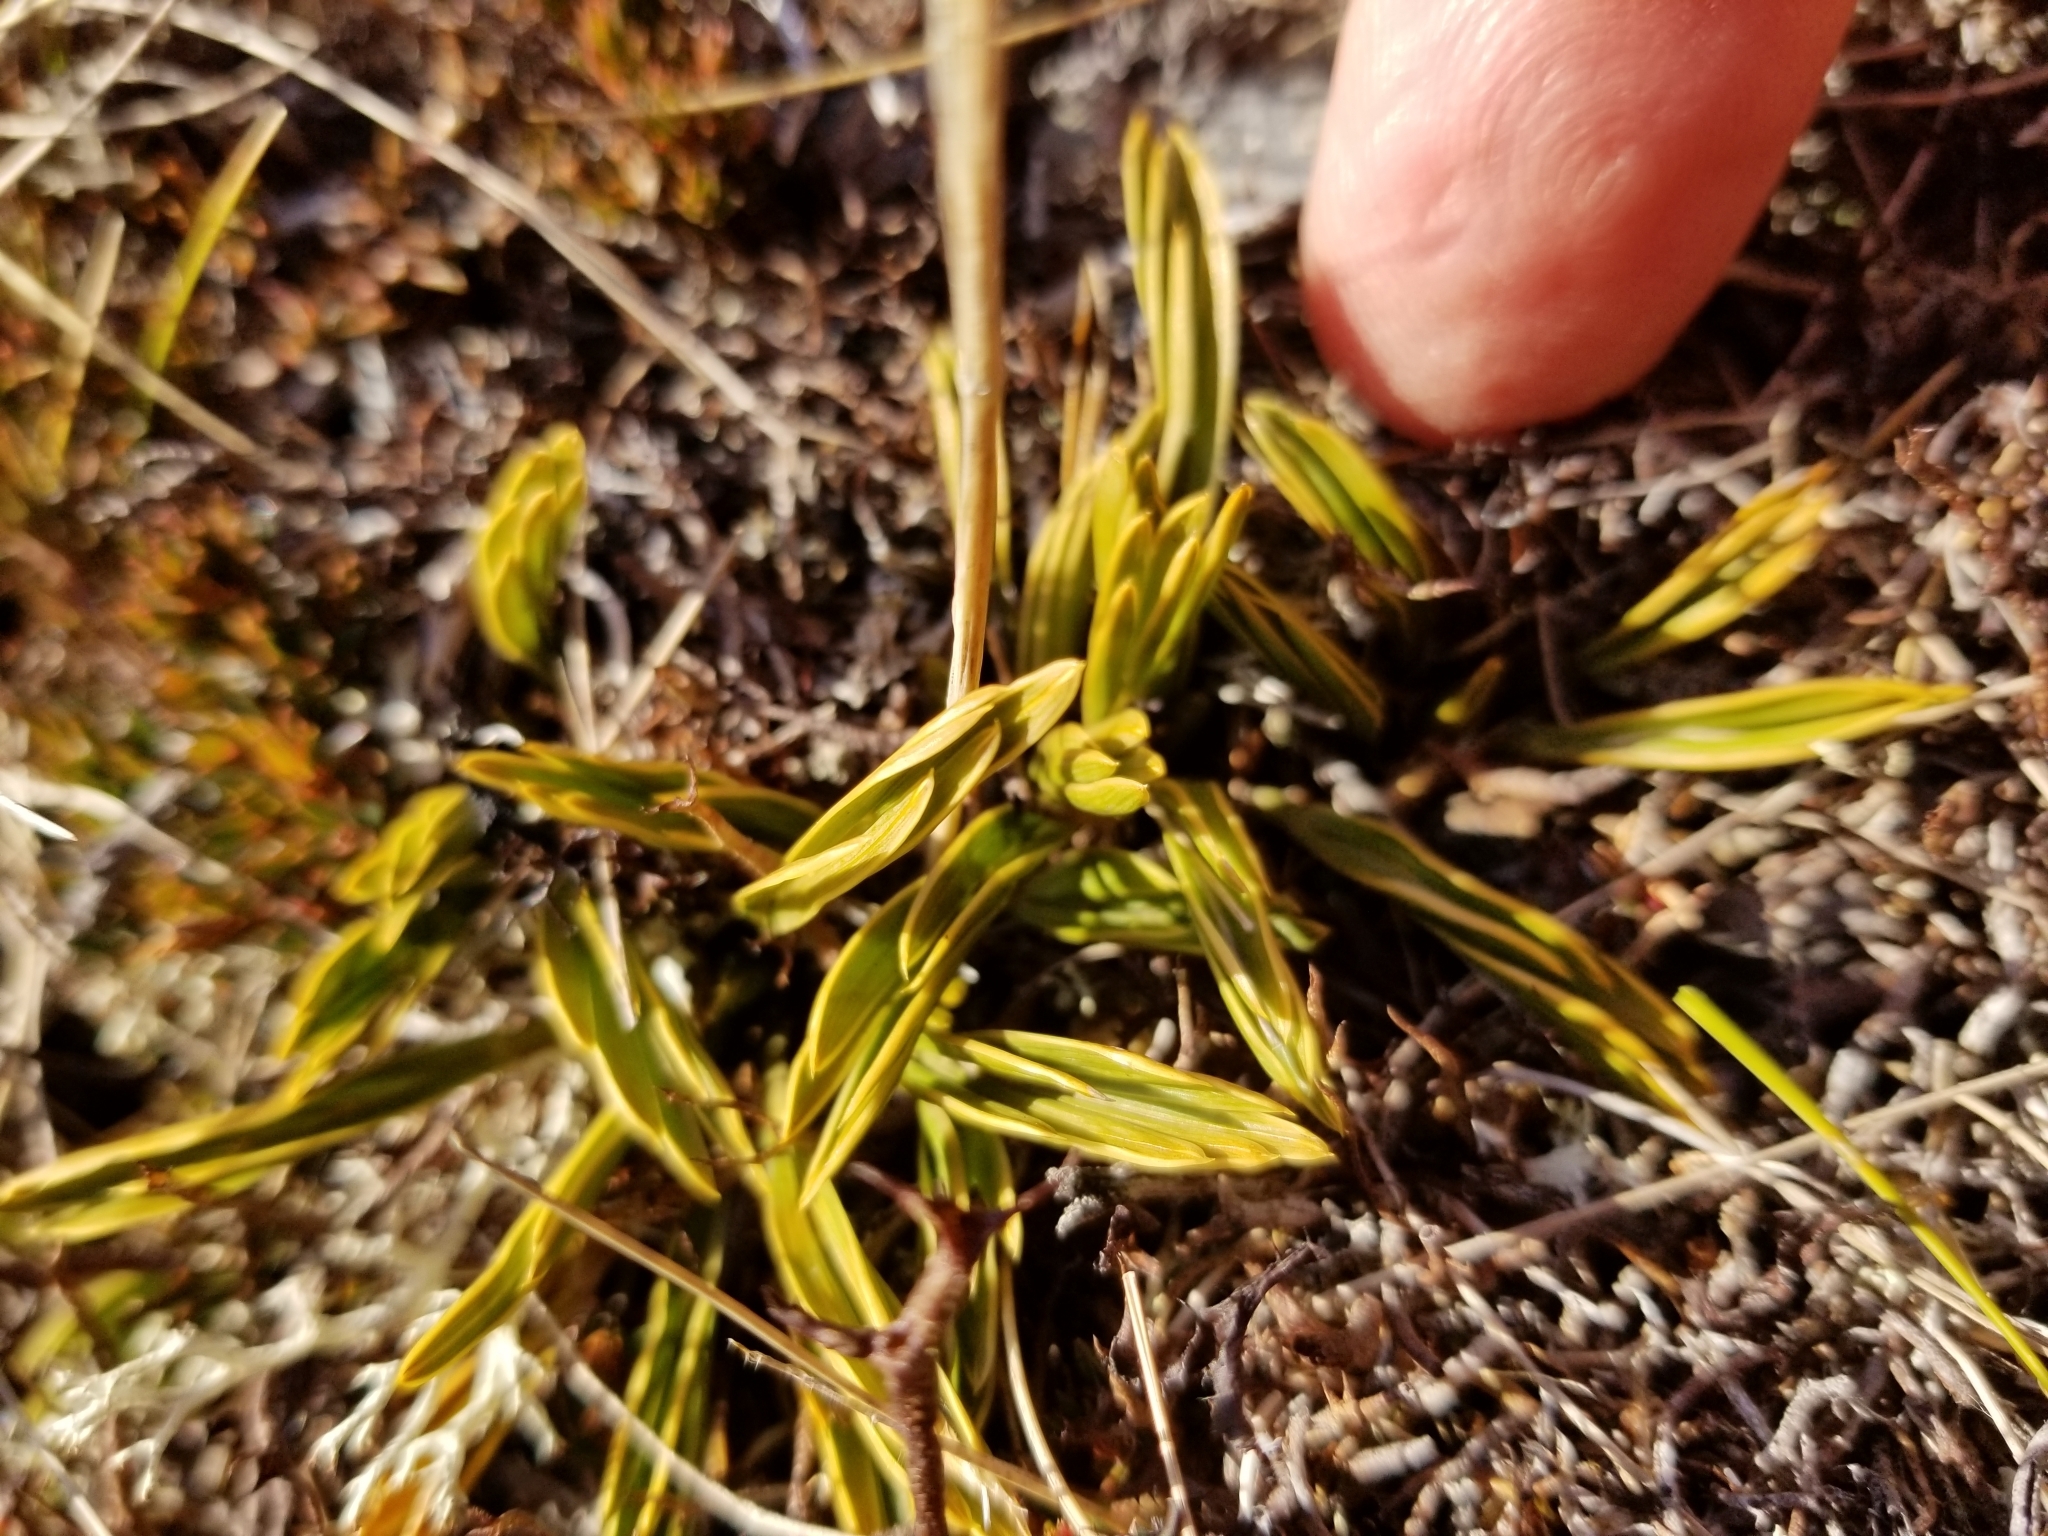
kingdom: Plantae
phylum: Tracheophyta
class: Magnoliopsida
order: Apiales
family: Apiaceae
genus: Aciphylla
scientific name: Aciphylla monroi
